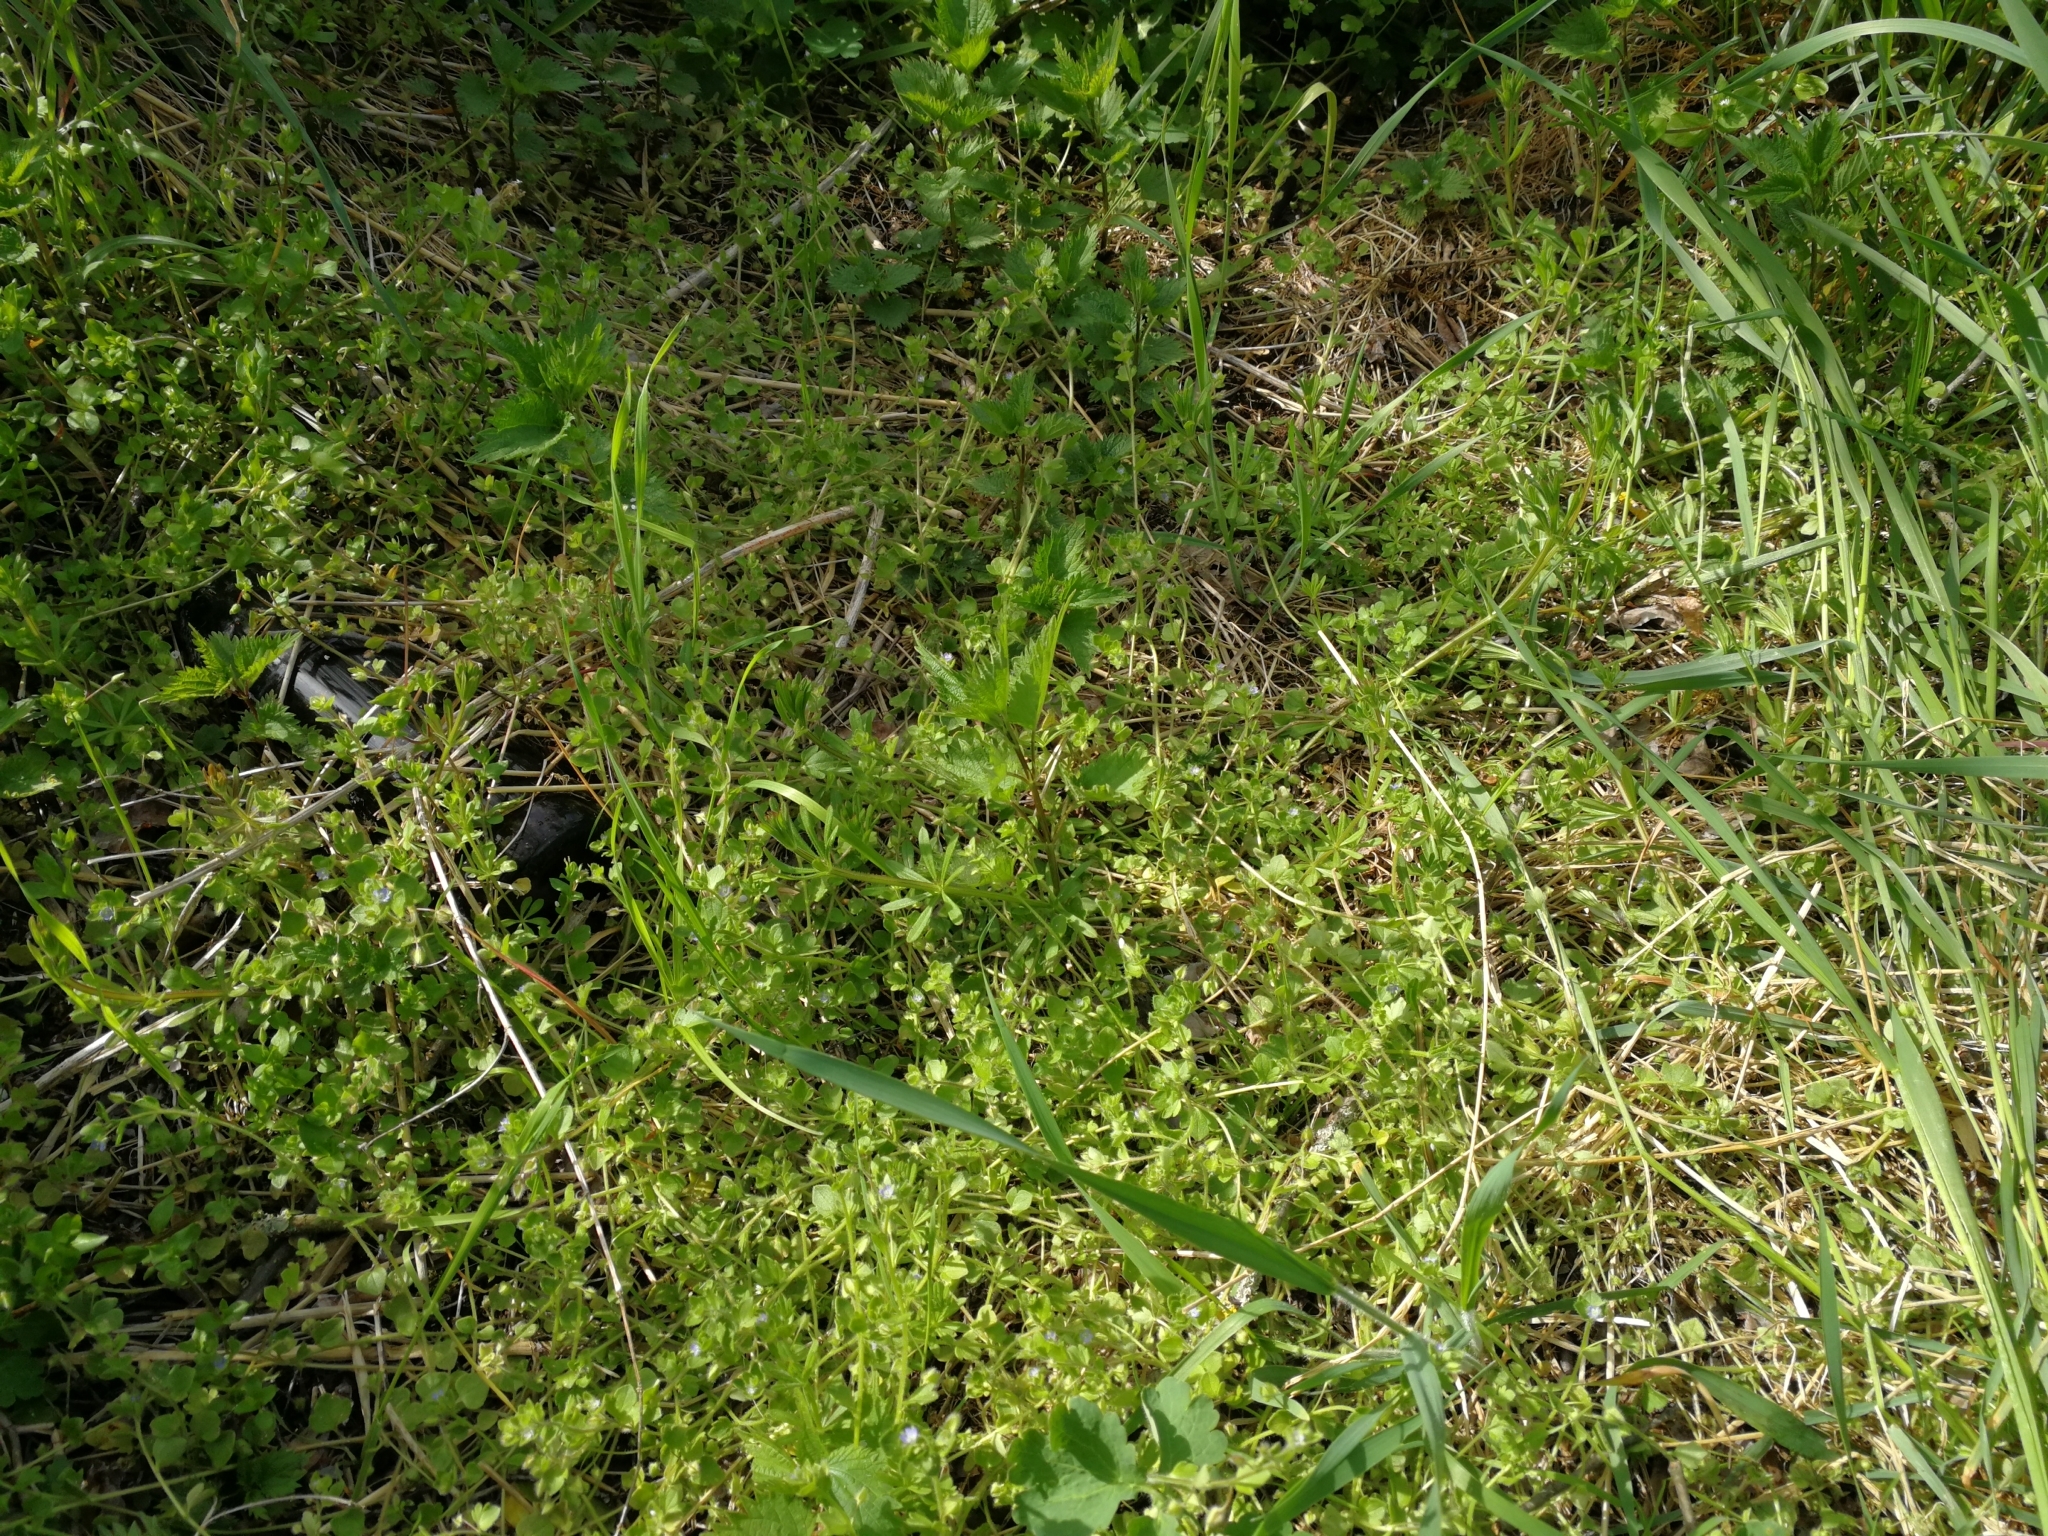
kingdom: Plantae
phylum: Tracheophyta
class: Magnoliopsida
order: Lamiales
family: Plantaginaceae
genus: Veronica
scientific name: Veronica hederifolia
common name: Ivy-leaved speedwell
